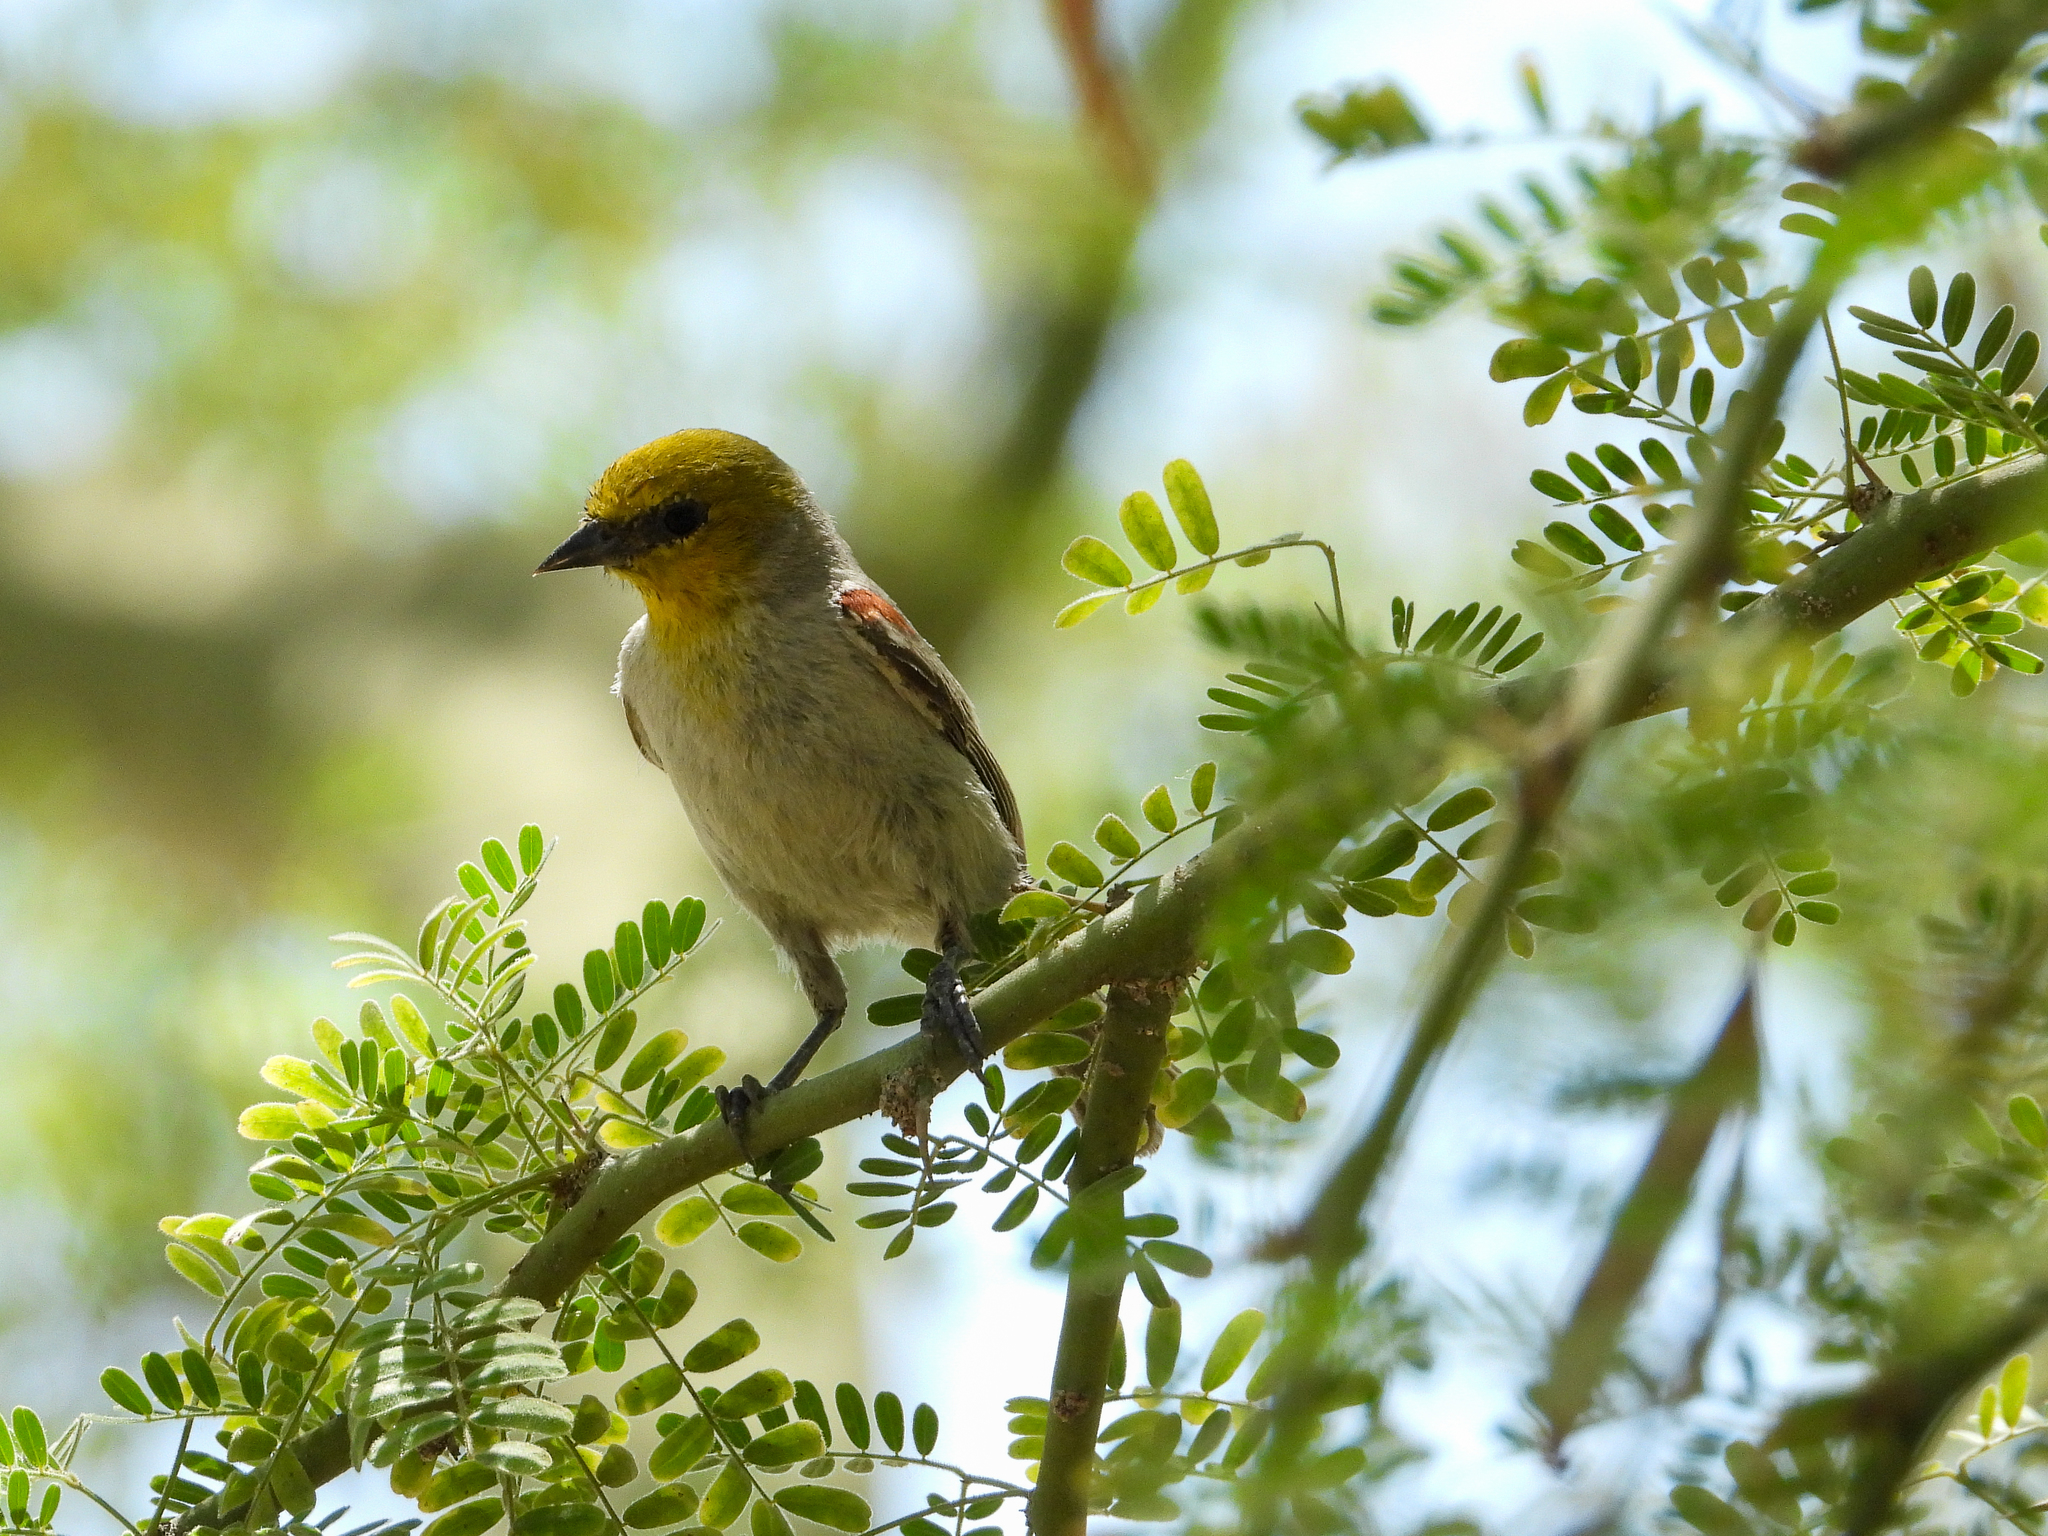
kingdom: Animalia
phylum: Chordata
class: Aves
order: Passeriformes
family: Remizidae
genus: Auriparus
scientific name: Auriparus flaviceps
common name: Verdin
